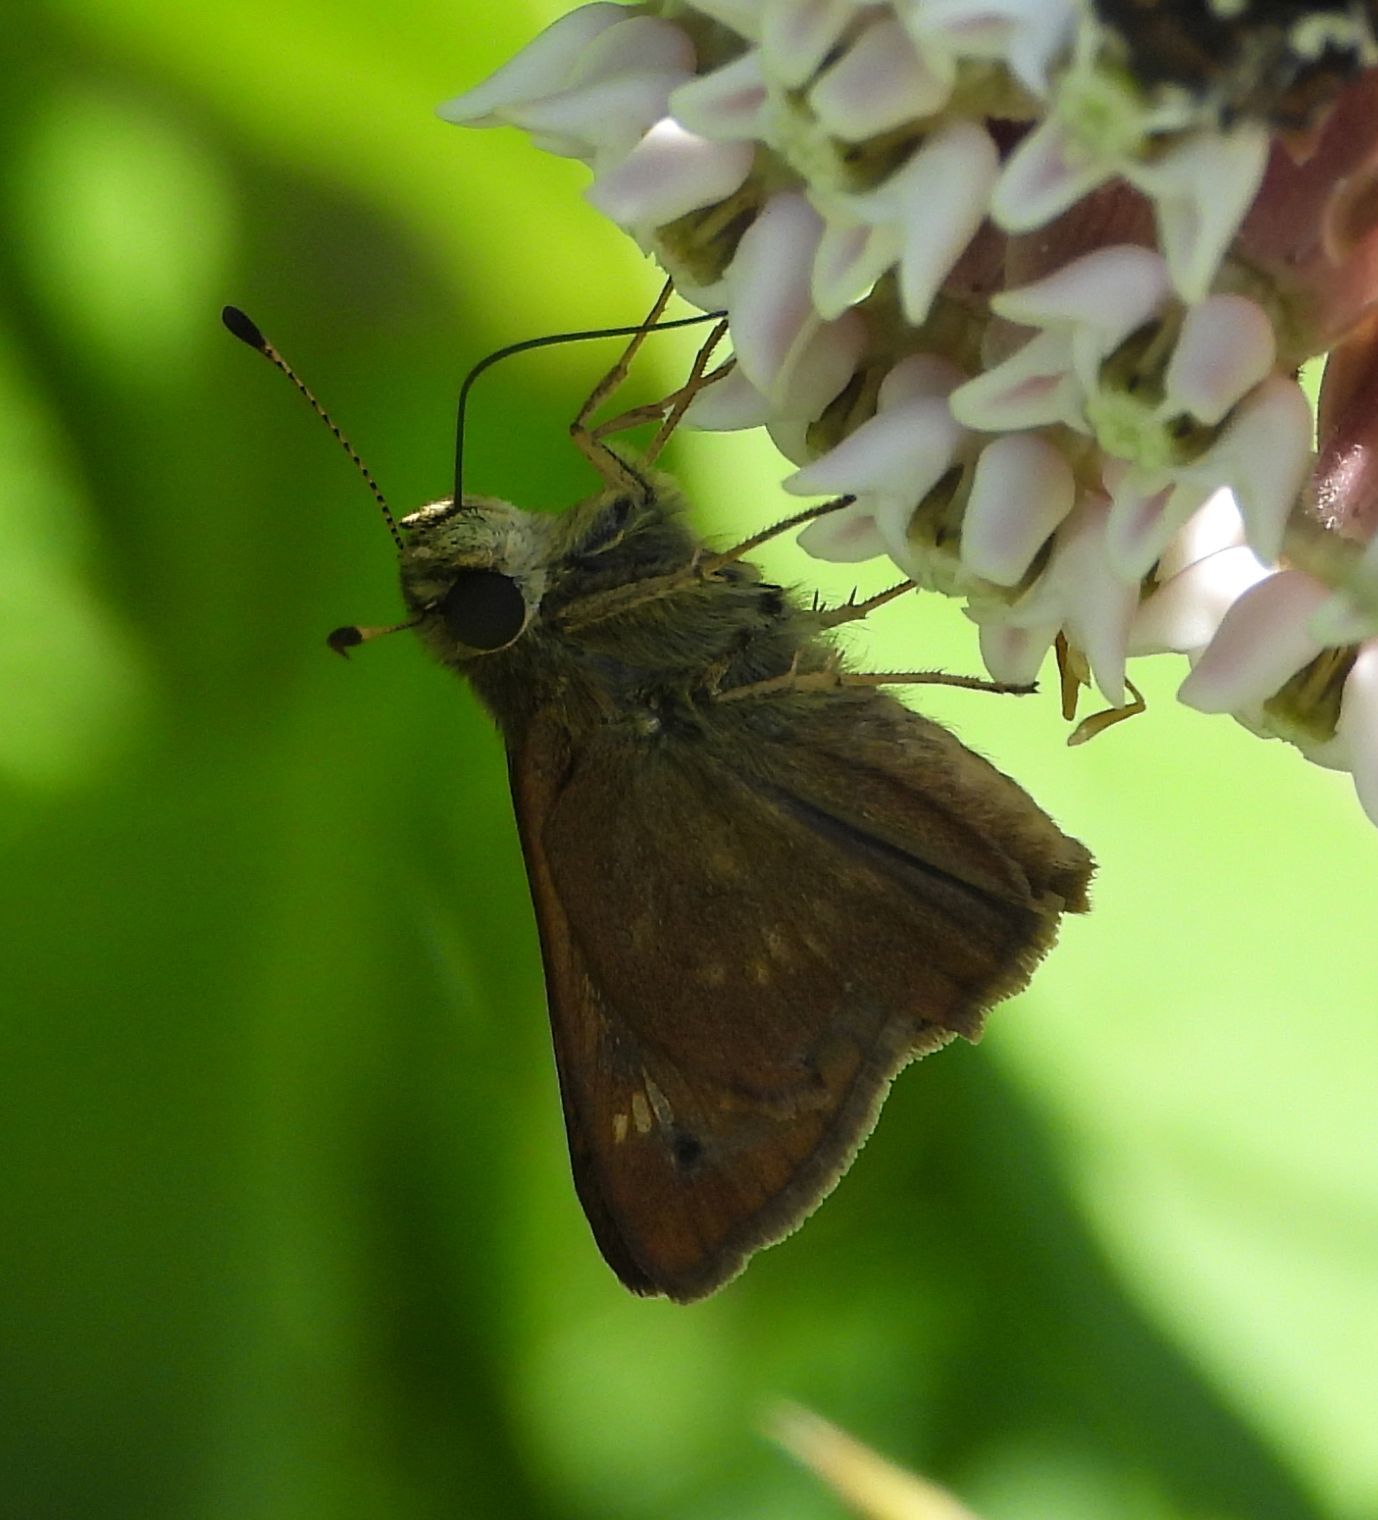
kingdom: Animalia
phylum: Arthropoda
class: Insecta
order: Lepidoptera
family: Hesperiidae
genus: Vernia
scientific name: Vernia verna
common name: Little glassywing
